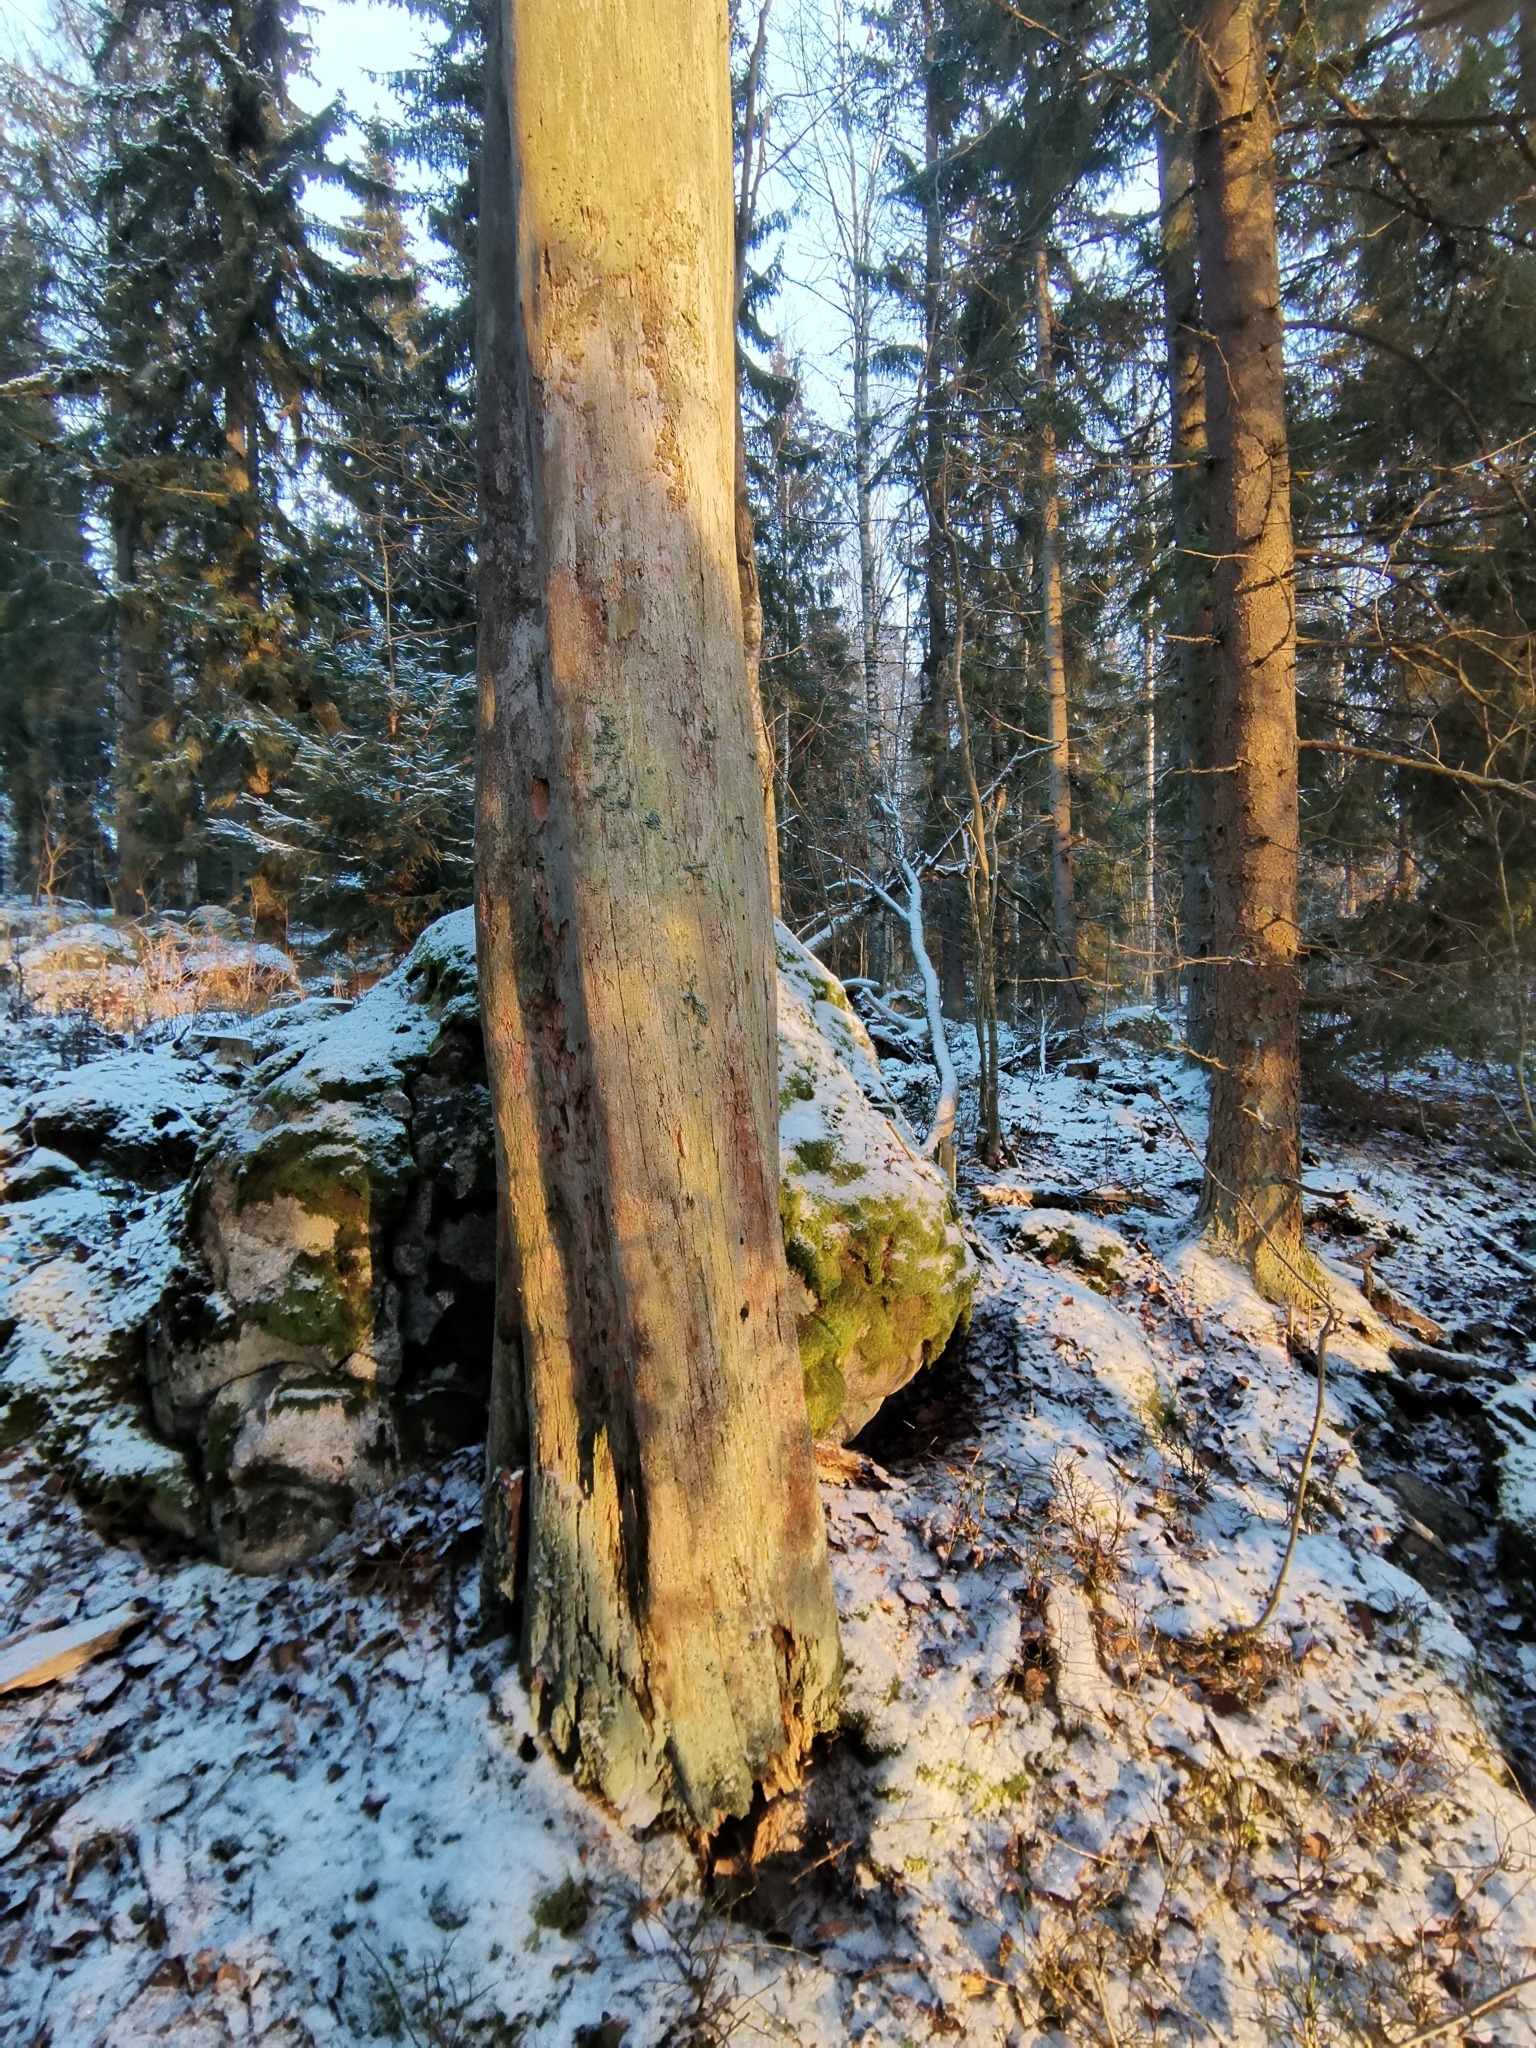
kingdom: Fungi
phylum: Ascomycota
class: Lecanoromycetes
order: Lecanorales
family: Parmeliaceae
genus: Parmeliopsis
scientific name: Parmeliopsis hyperopta
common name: Grey starburst lichen
